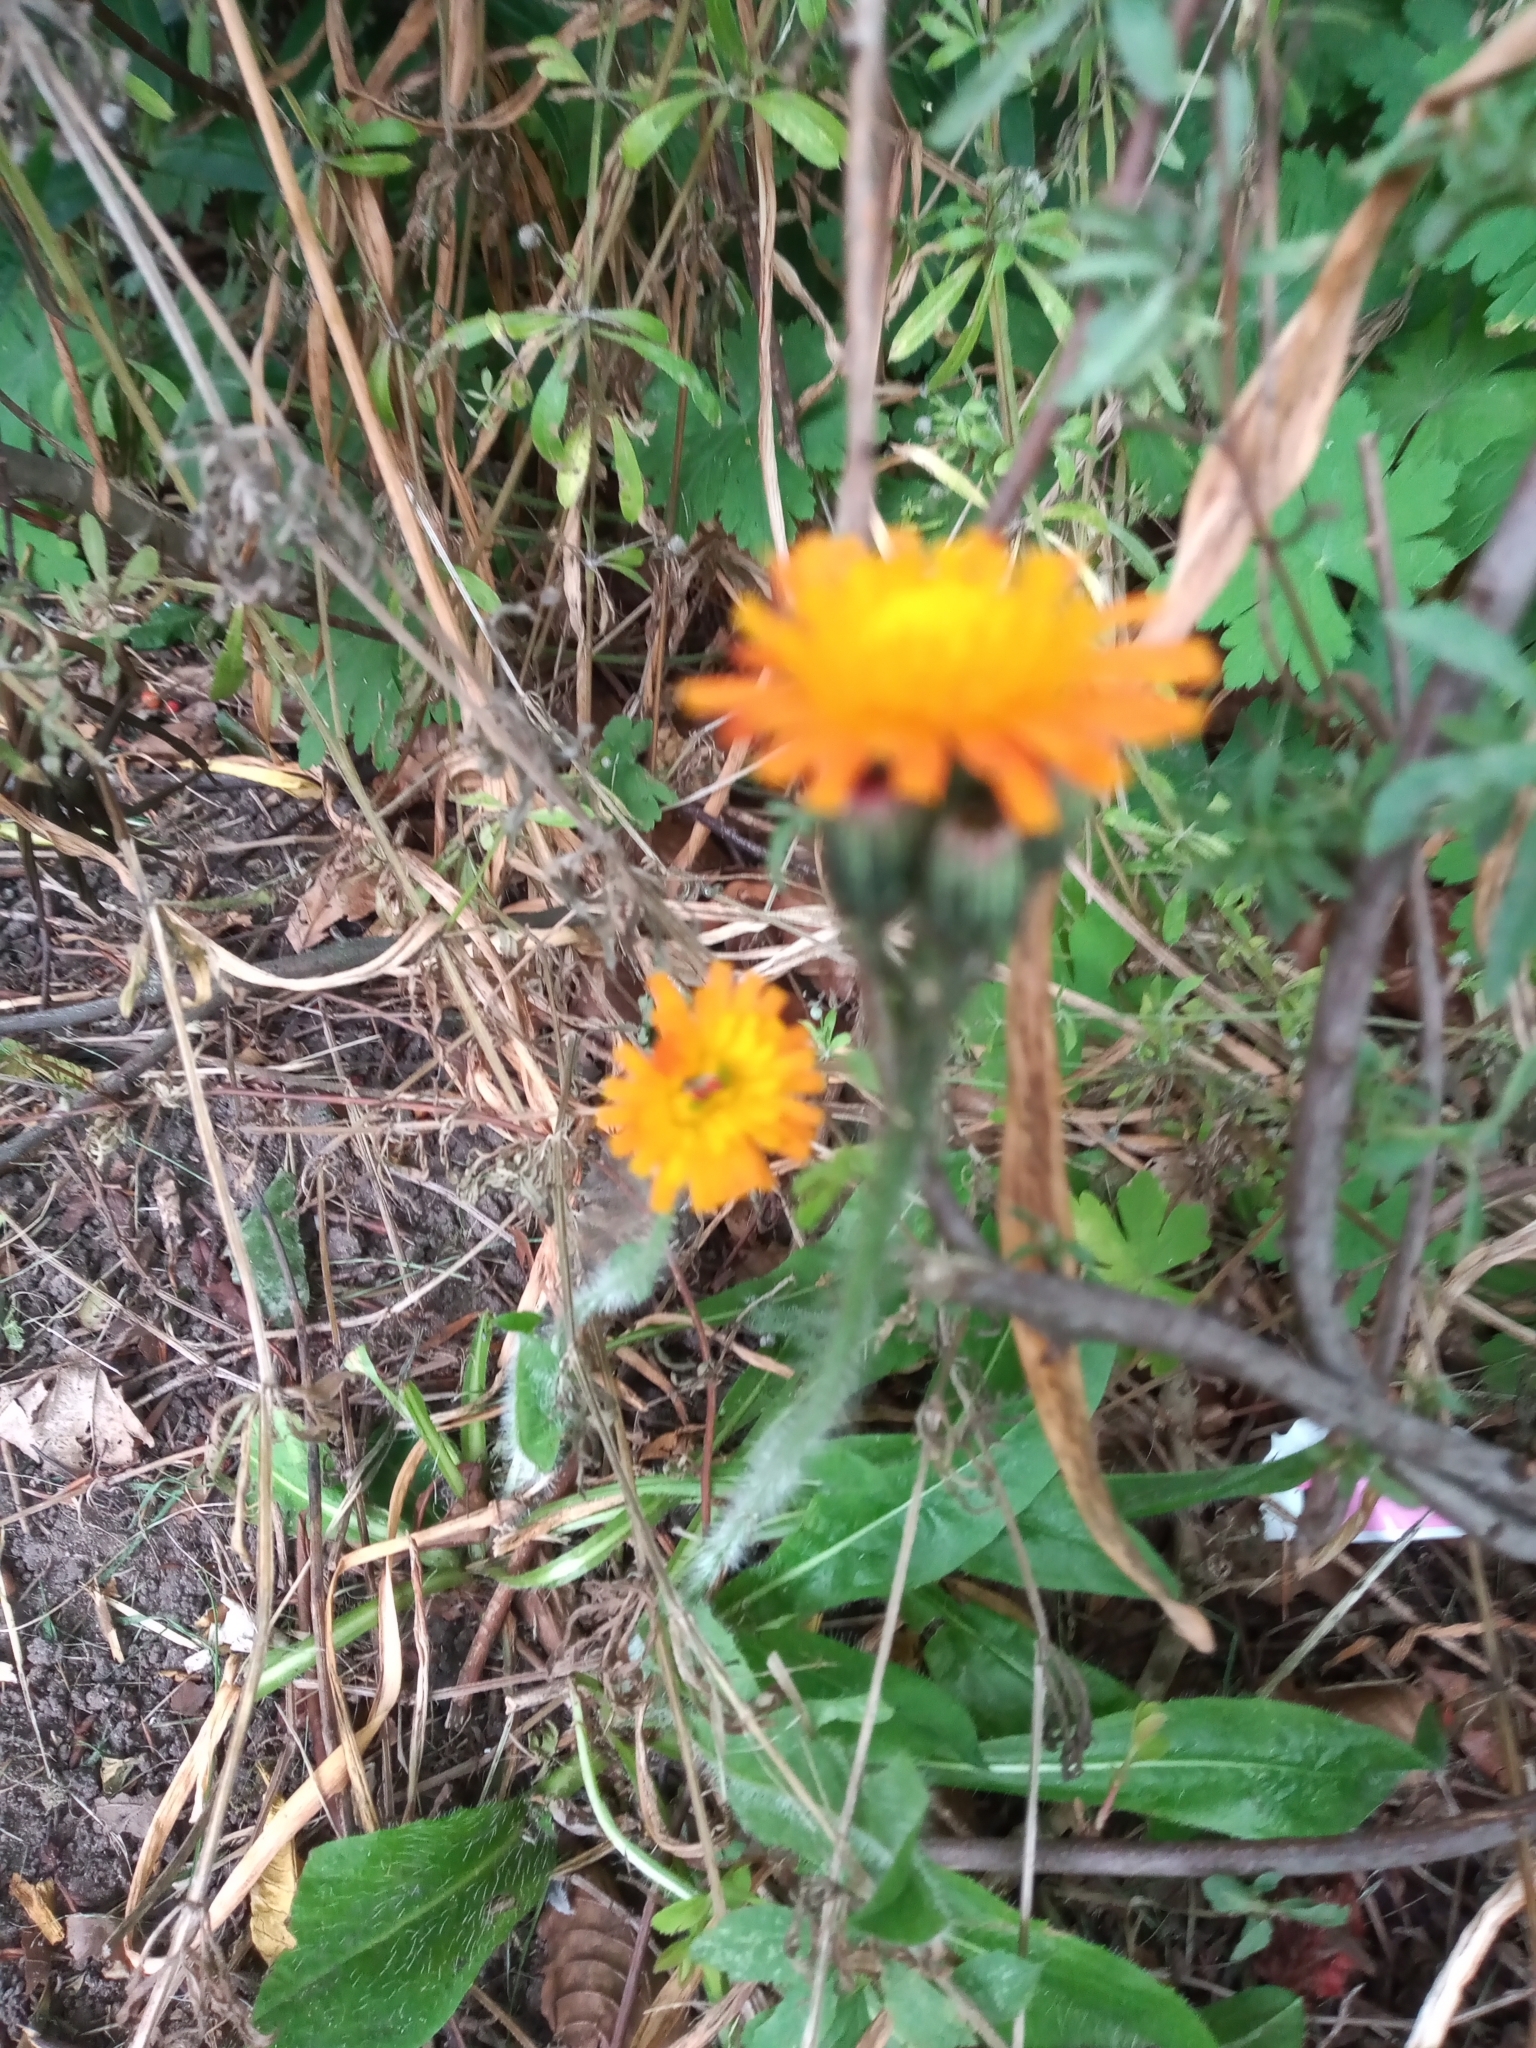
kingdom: Plantae
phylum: Tracheophyta
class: Magnoliopsida
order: Asterales
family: Asteraceae
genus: Pilosella
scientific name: Pilosella aurantiaca
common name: Fox-and-cubs
